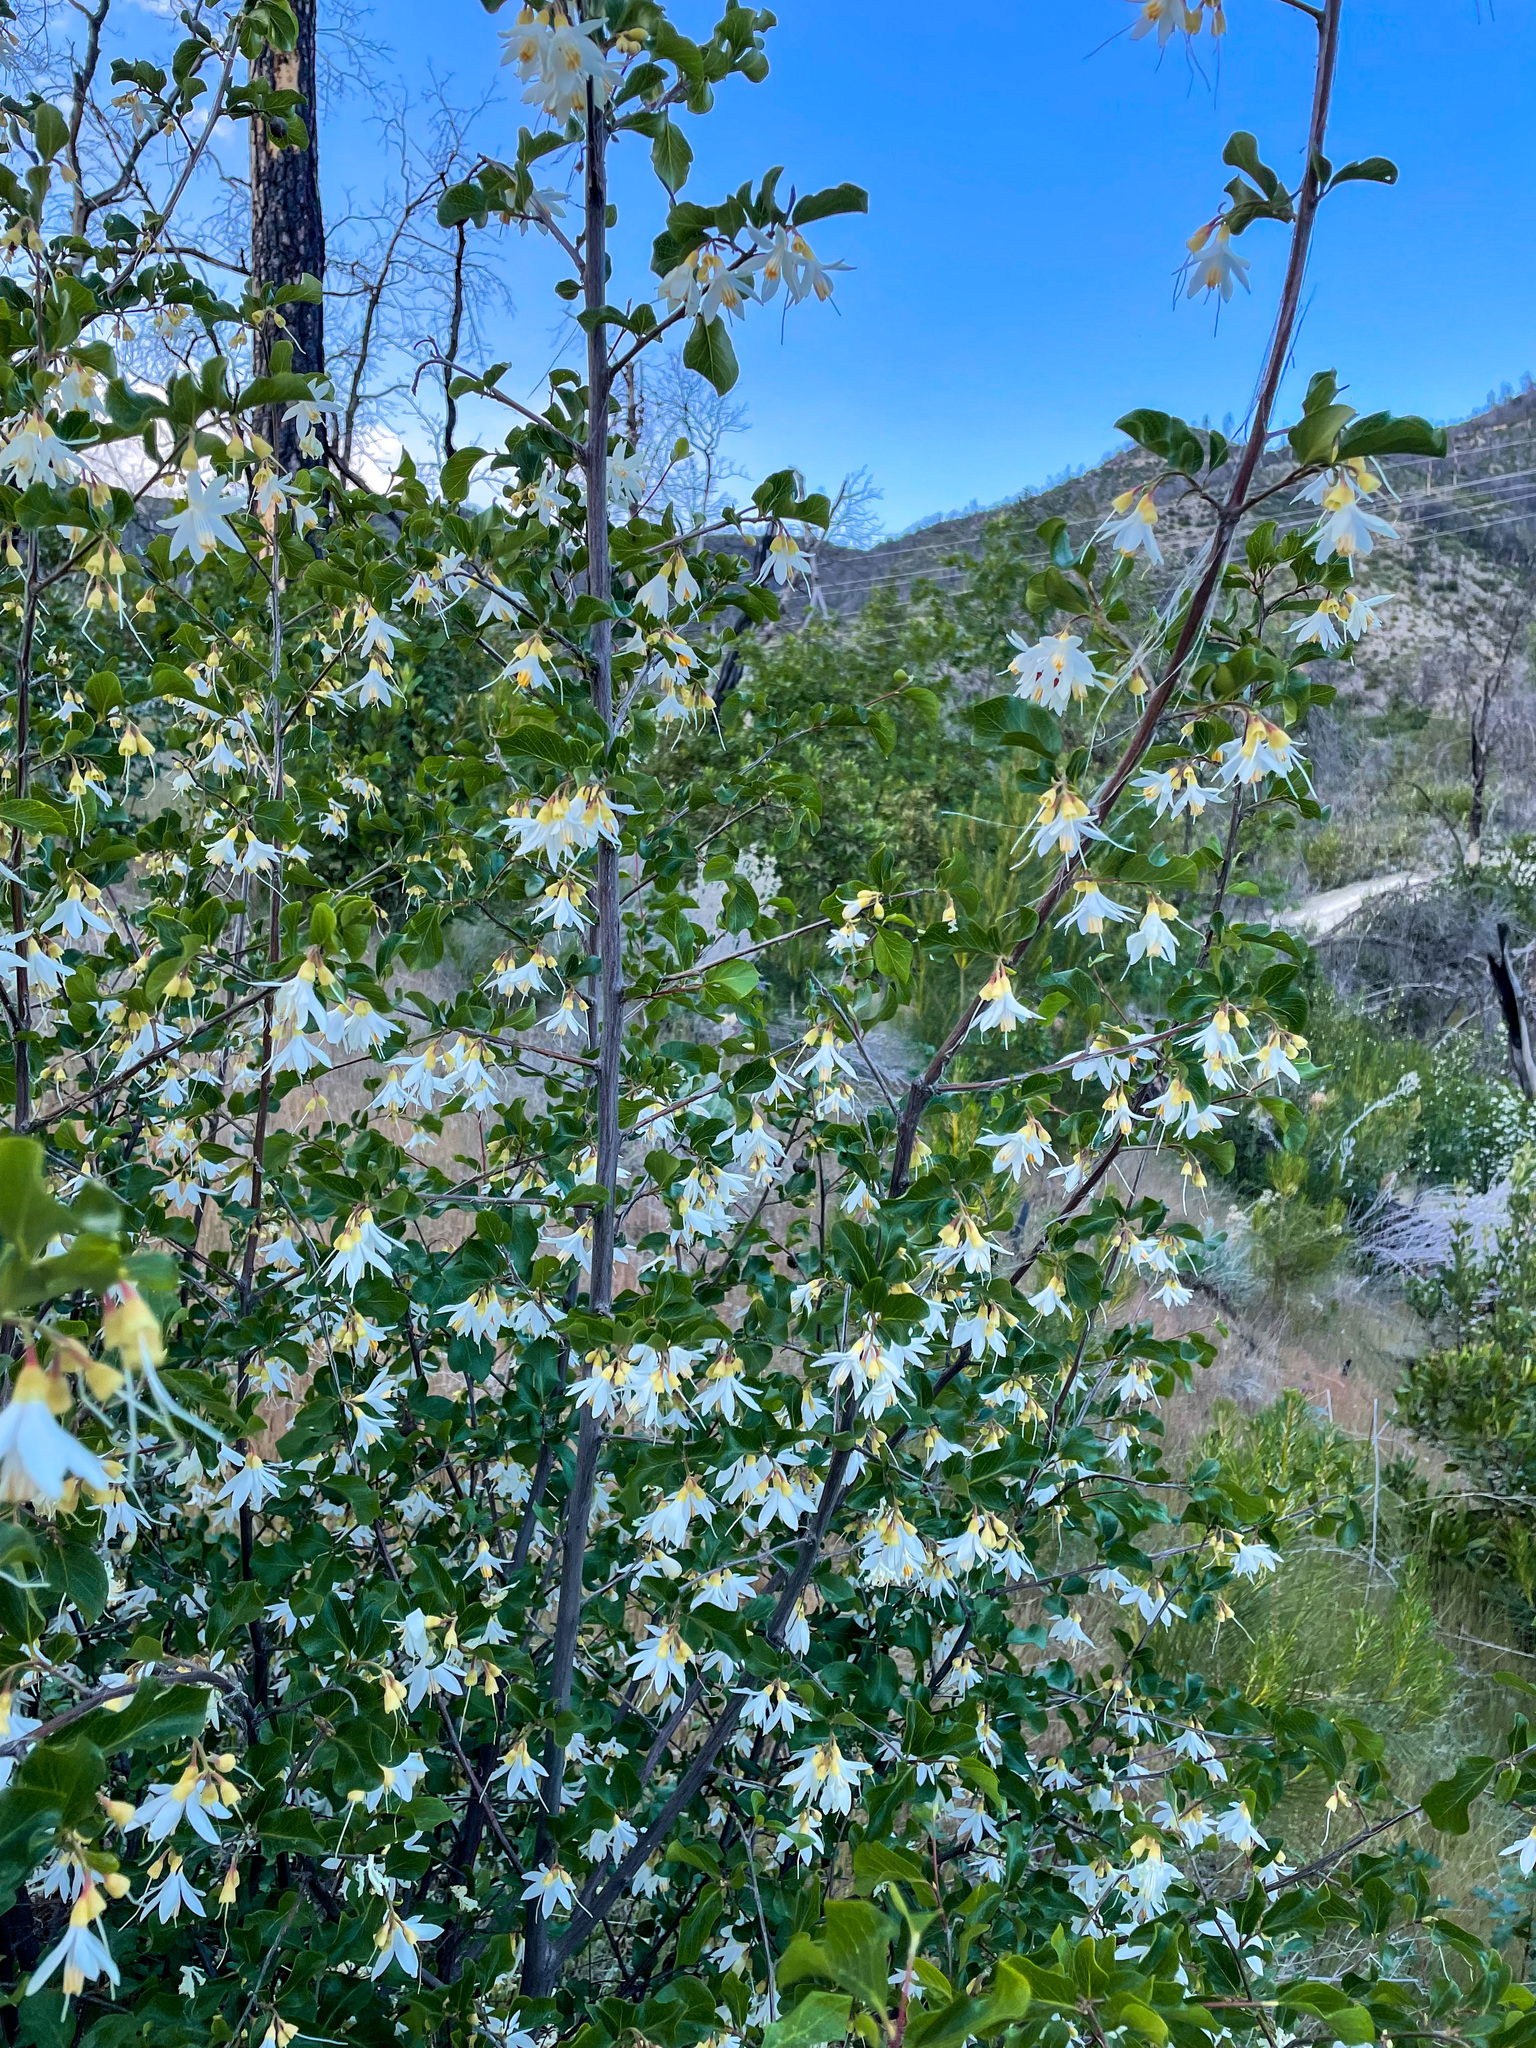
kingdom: Plantae
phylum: Tracheophyta
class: Magnoliopsida
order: Ericales
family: Styracaceae
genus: Styrax
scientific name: Styrax redivivus
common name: California styrax
